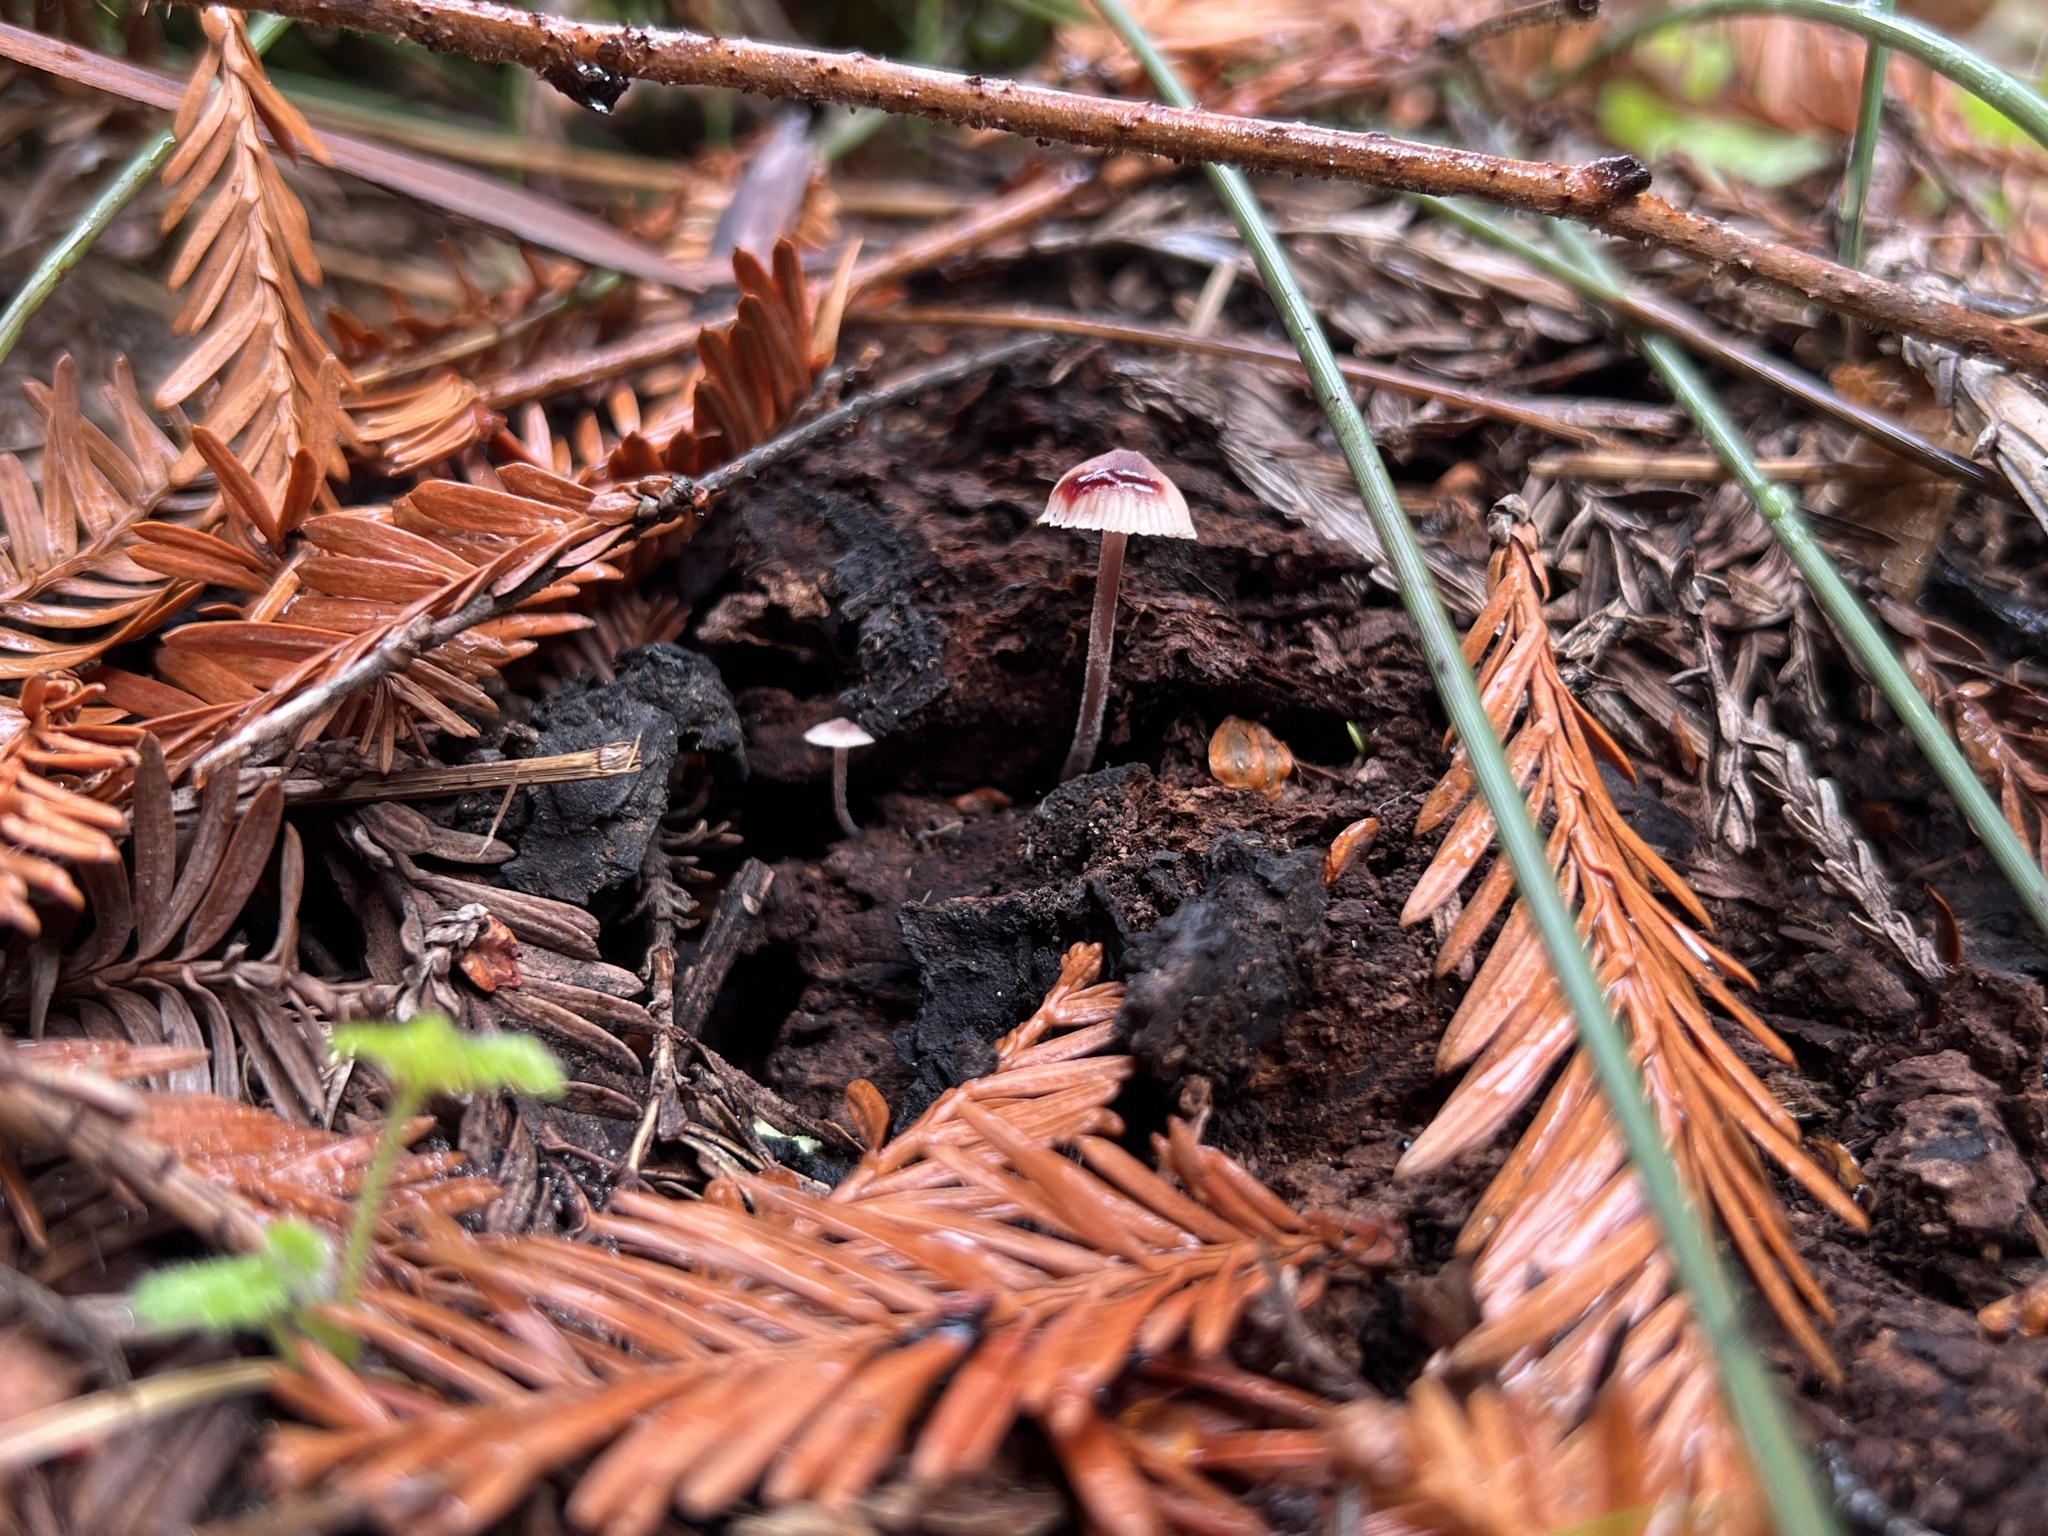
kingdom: Fungi
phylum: Basidiomycota
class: Agaricomycetes
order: Agaricales
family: Mycenaceae
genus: Mycena
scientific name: Mycena haematopus
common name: Burgundydrop bonnet
